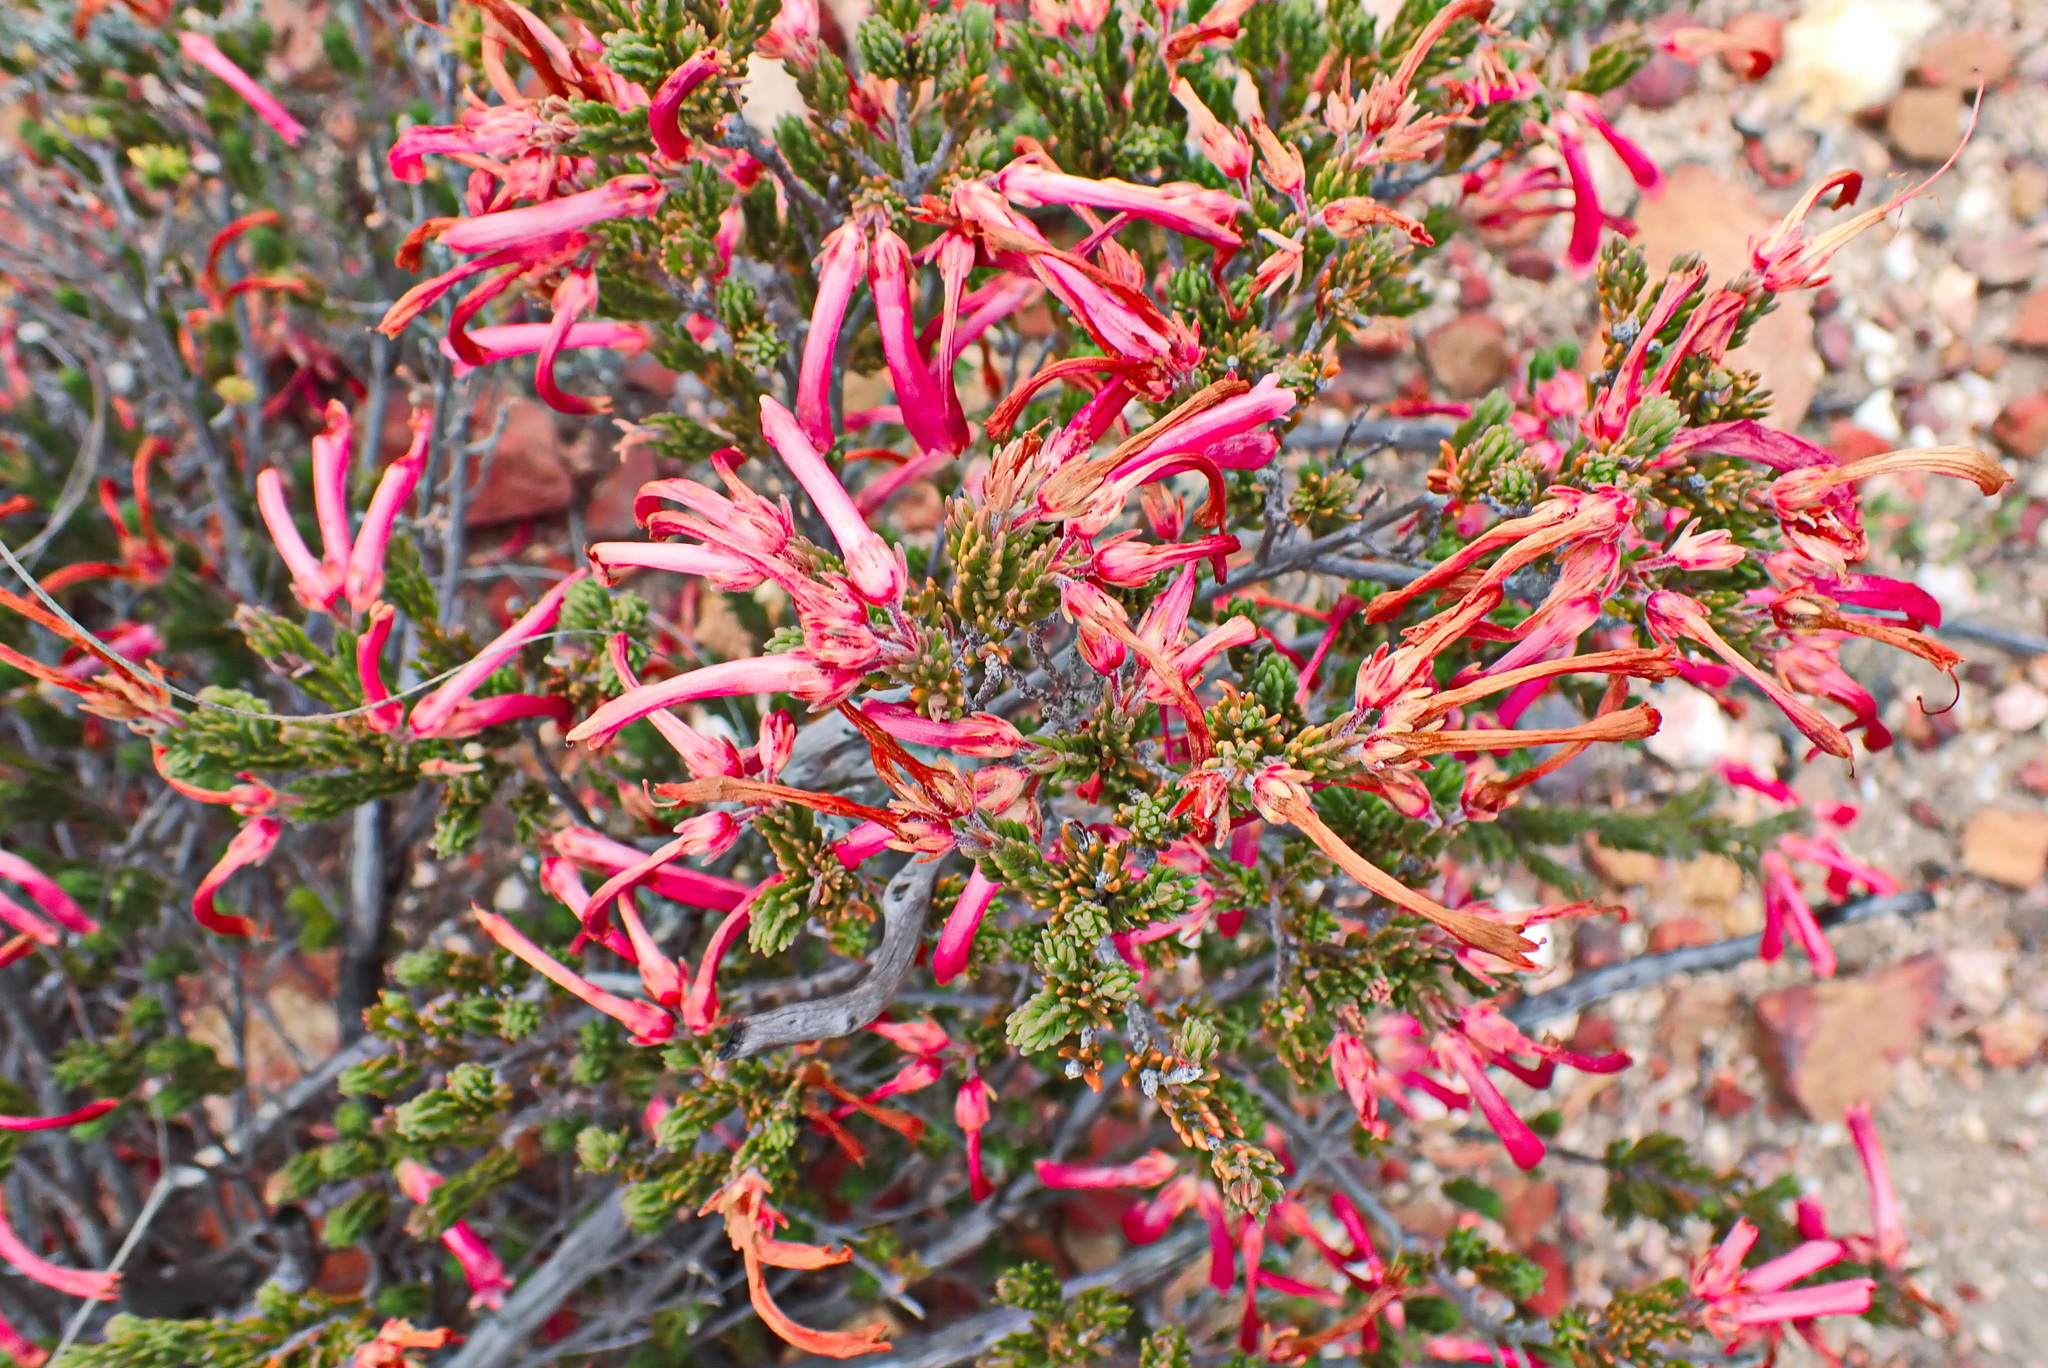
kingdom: Plantae
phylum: Tracheophyta
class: Magnoliopsida
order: Ericales
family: Ericaceae
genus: Erica
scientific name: Erica discolor
